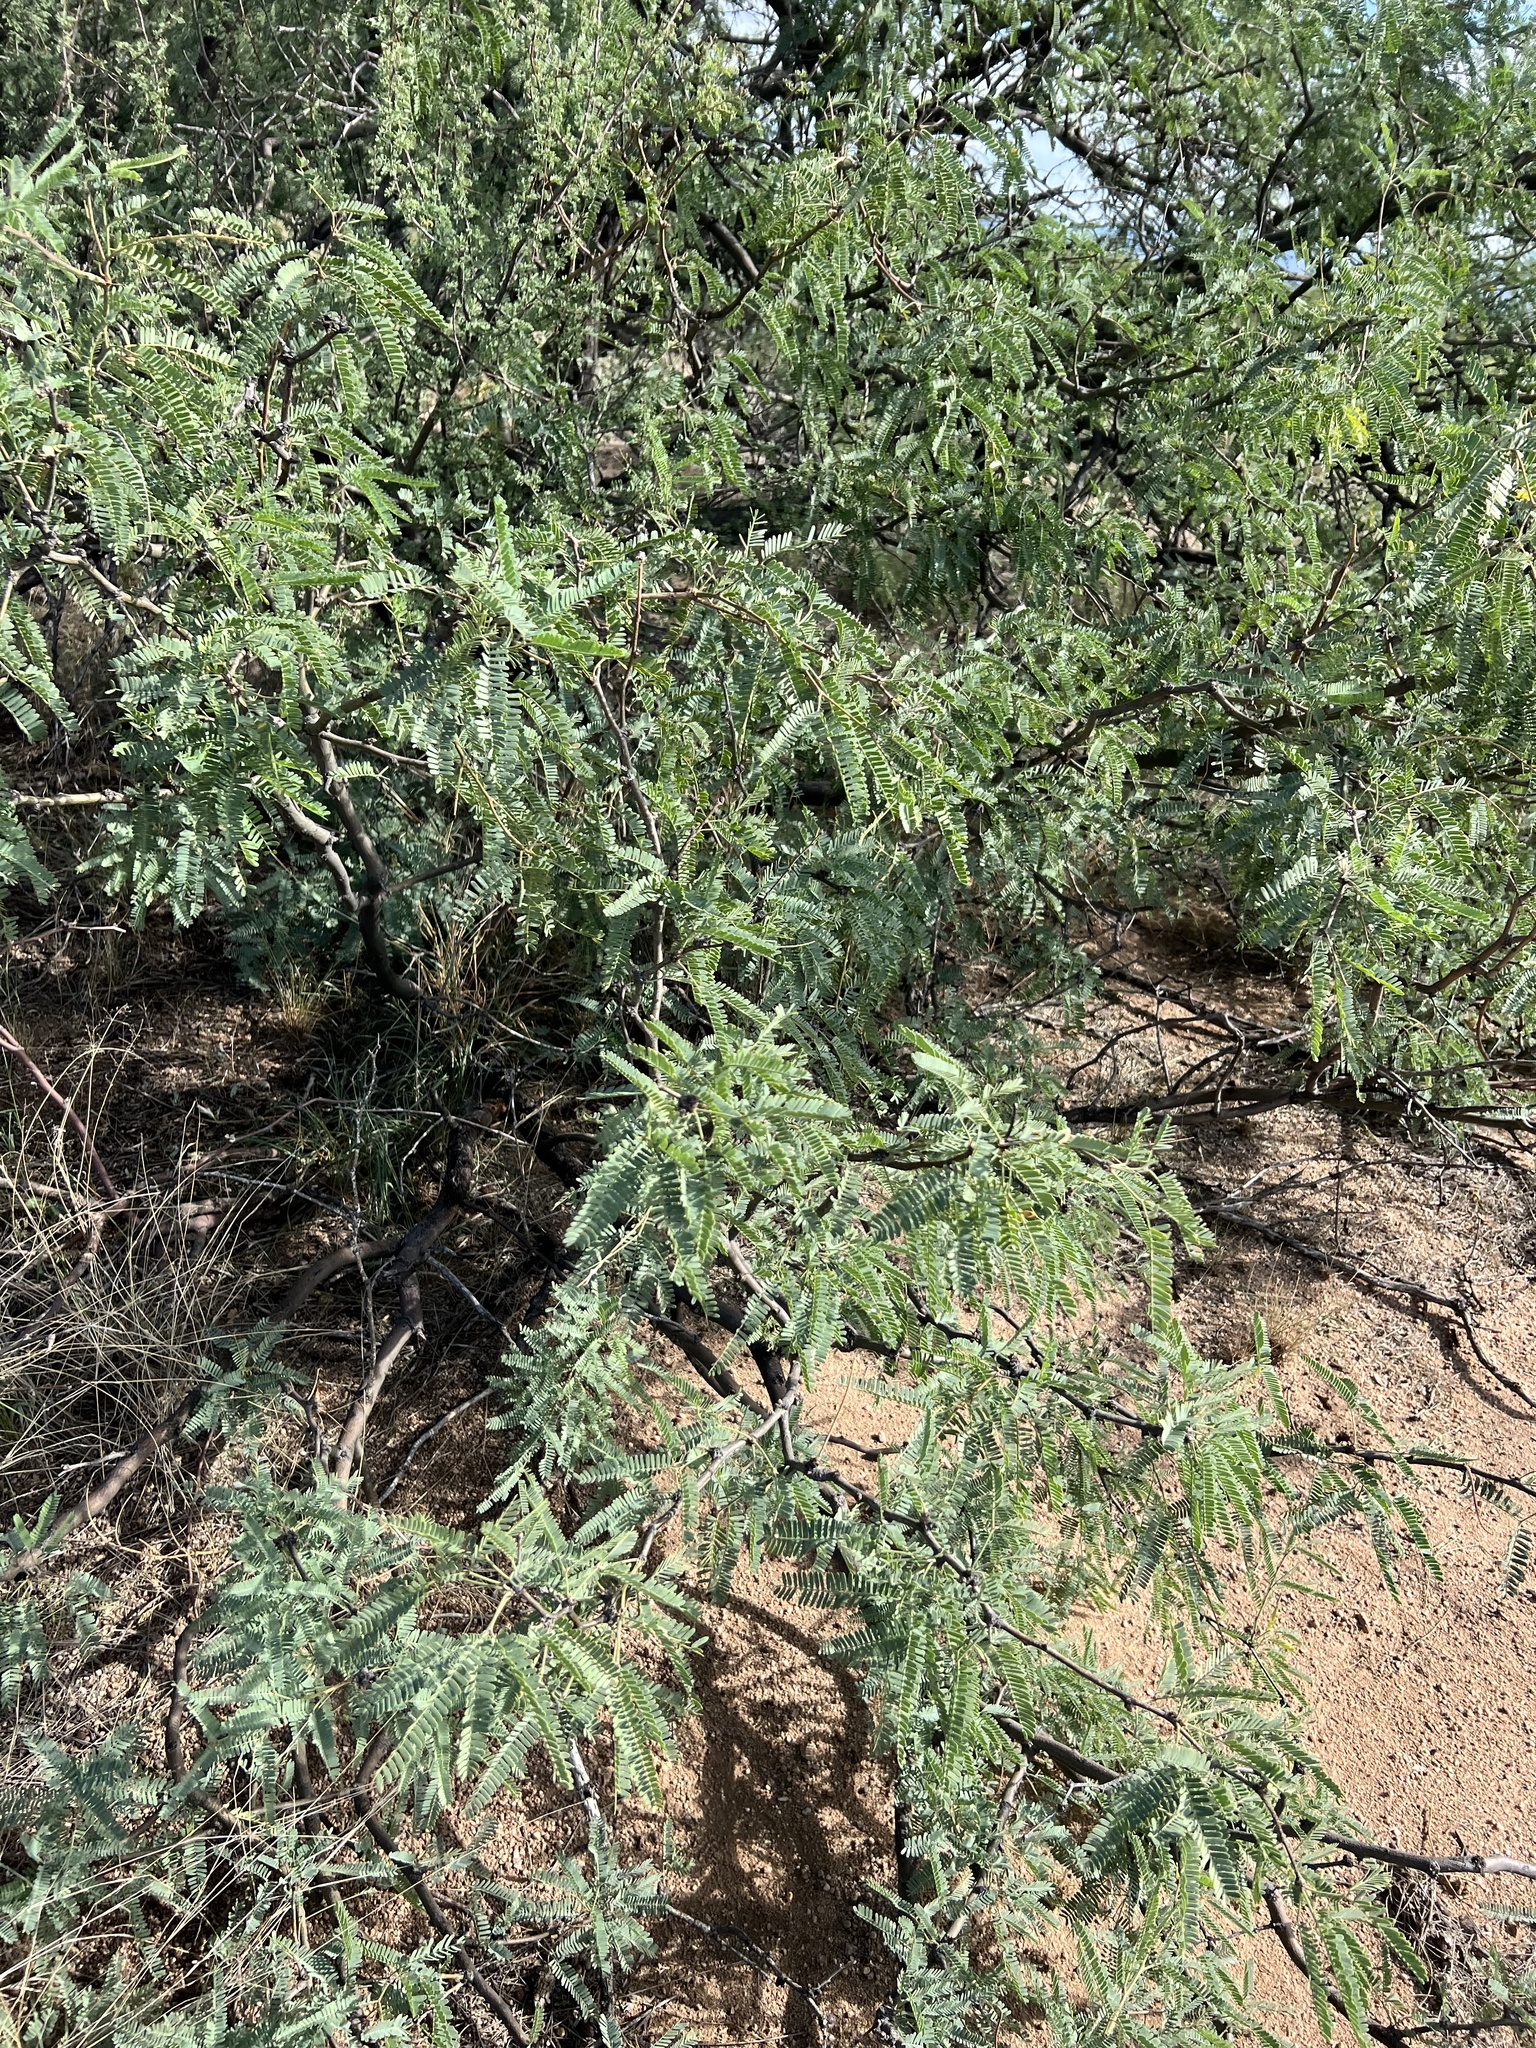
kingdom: Plantae
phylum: Tracheophyta
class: Magnoliopsida
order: Fabales
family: Fabaceae
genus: Prosopis
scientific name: Prosopis velutina
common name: Velvet mesquite
